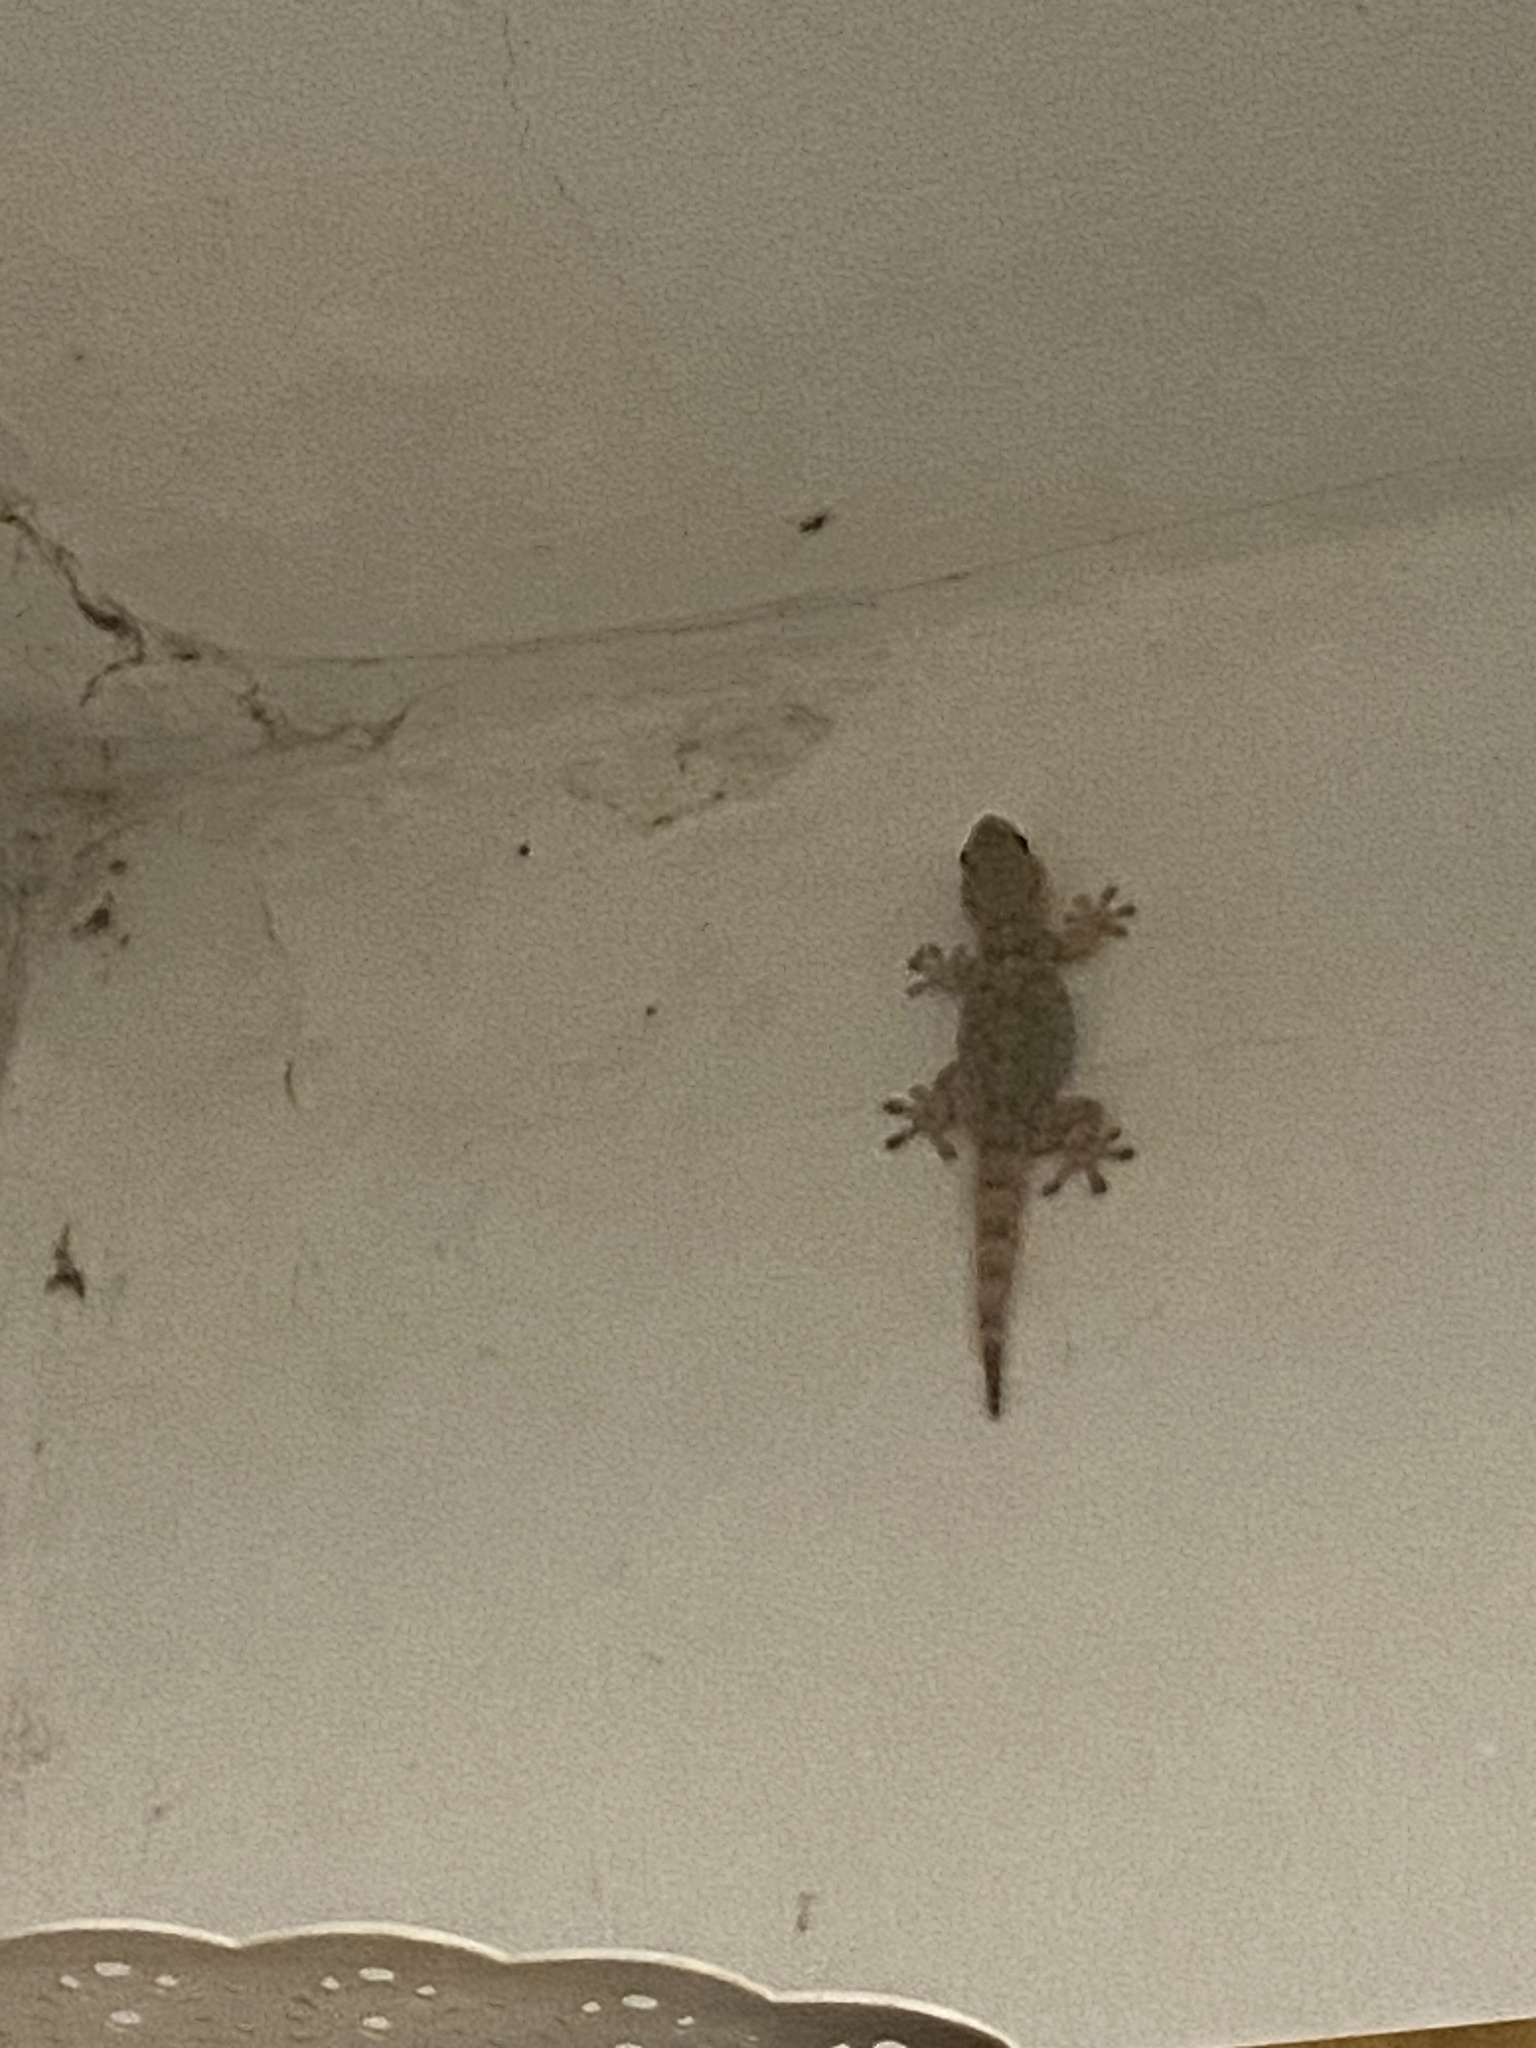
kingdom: Animalia
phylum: Chordata
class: Squamata
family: Phyllodactylidae
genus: Tarentola
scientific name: Tarentola mauritanica
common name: Moorish gecko
